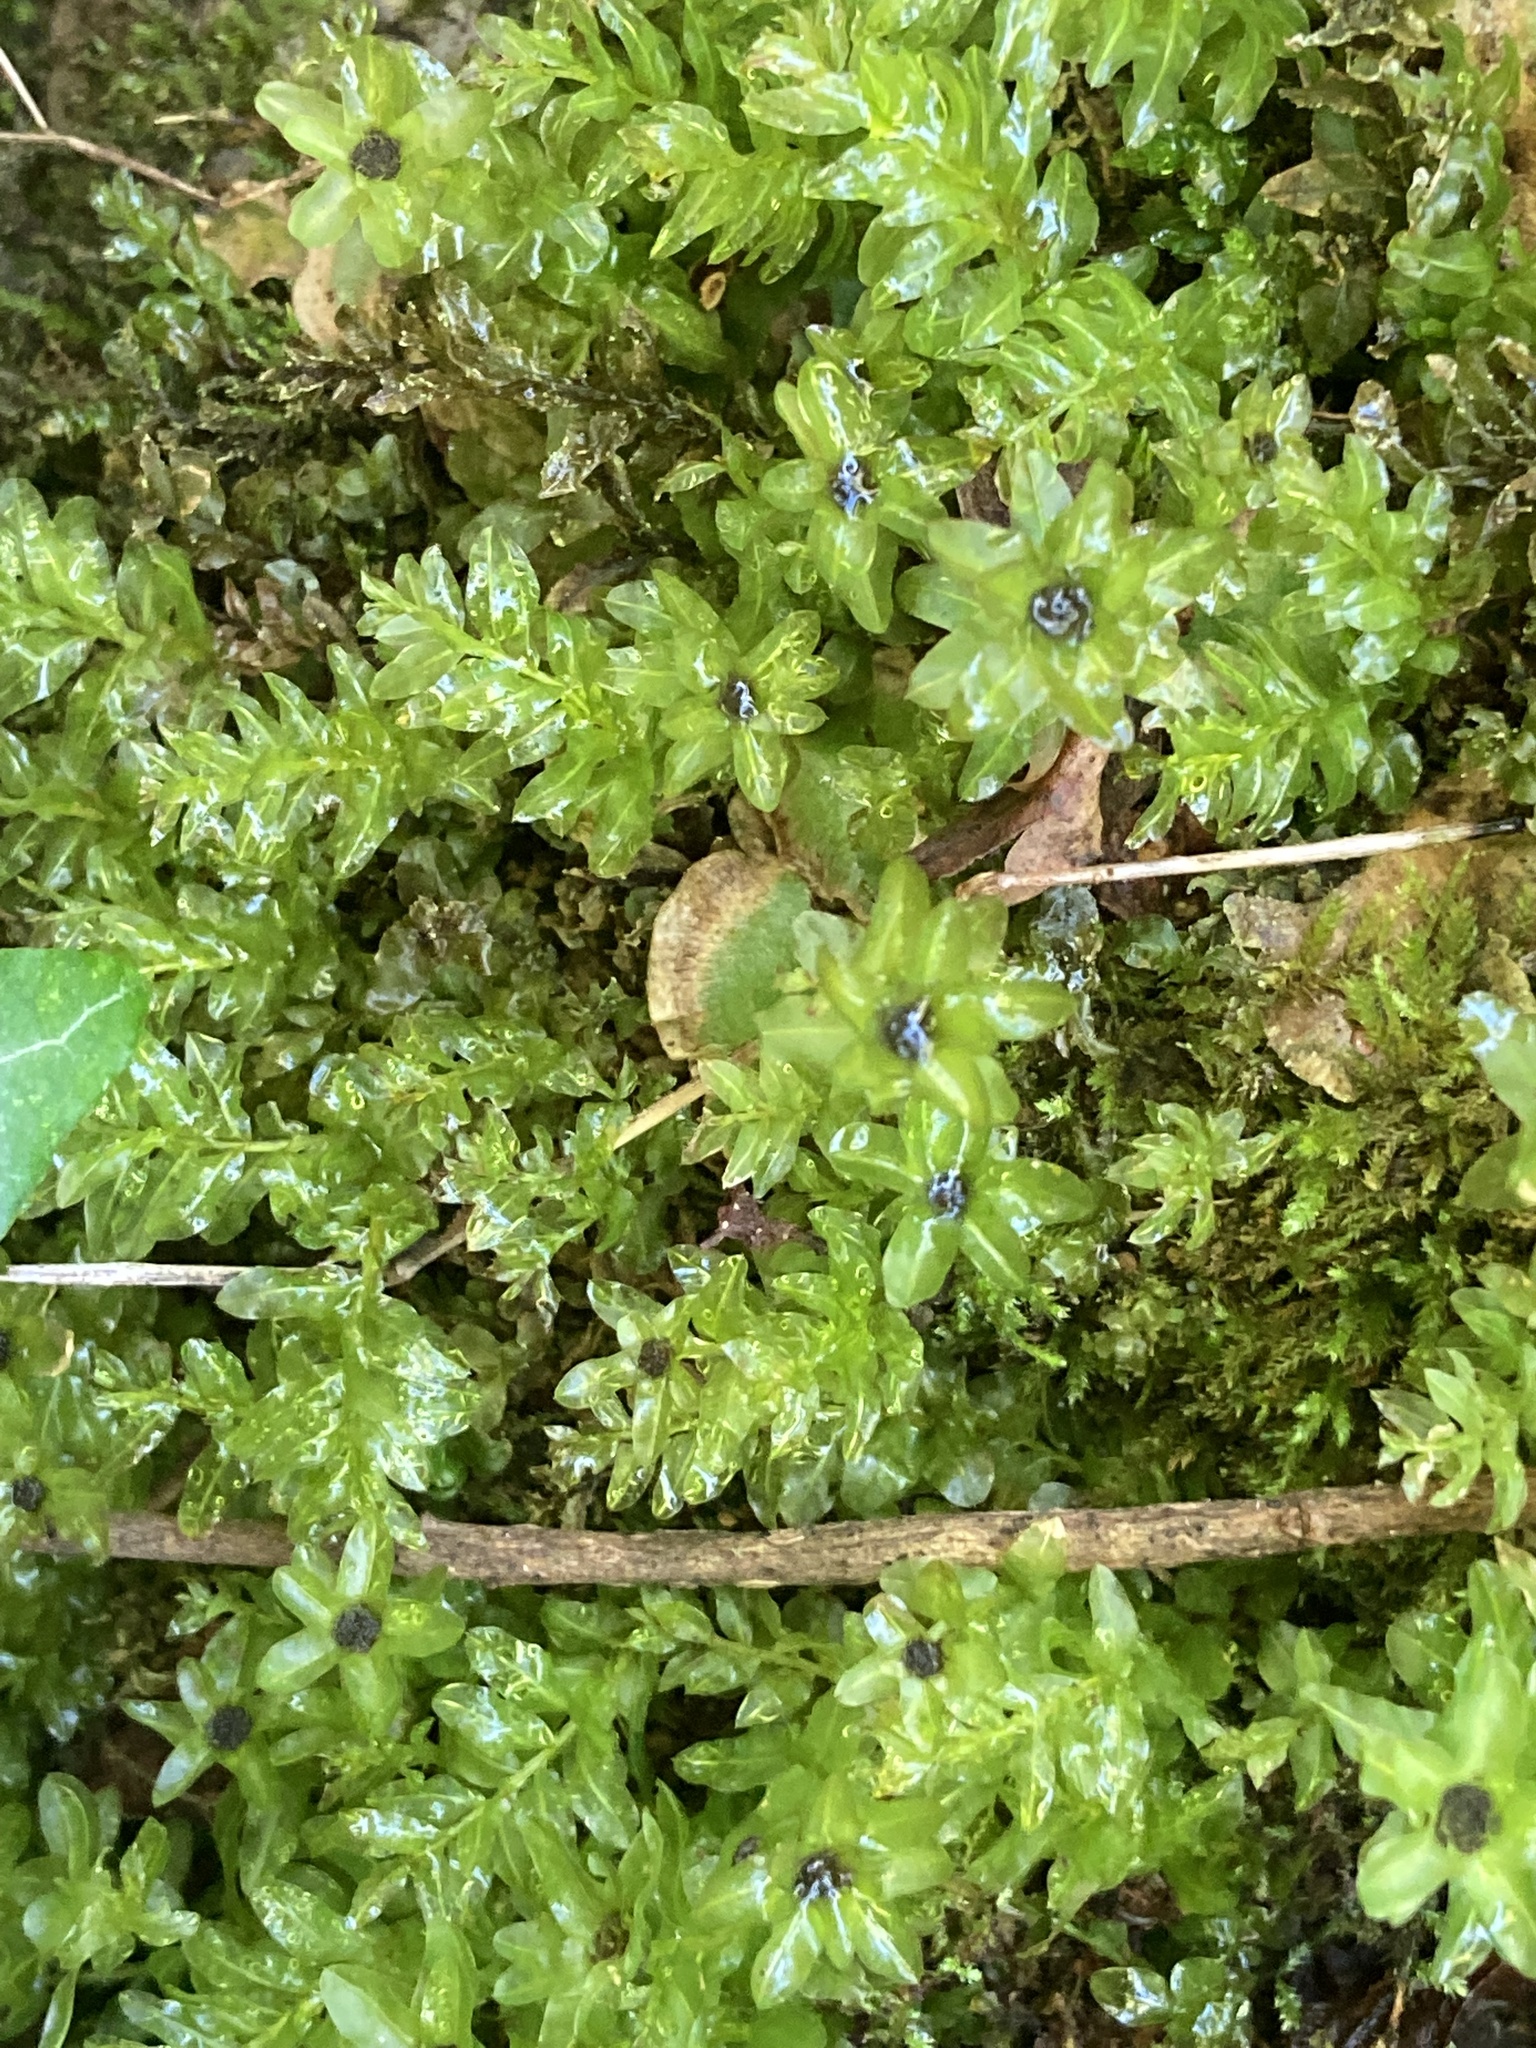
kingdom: Plantae
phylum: Bryophyta
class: Bryopsida
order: Bryales
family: Mniaceae
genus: Plagiomnium
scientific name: Plagiomnium undulatum
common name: Hart's-tongue thyme-moss
